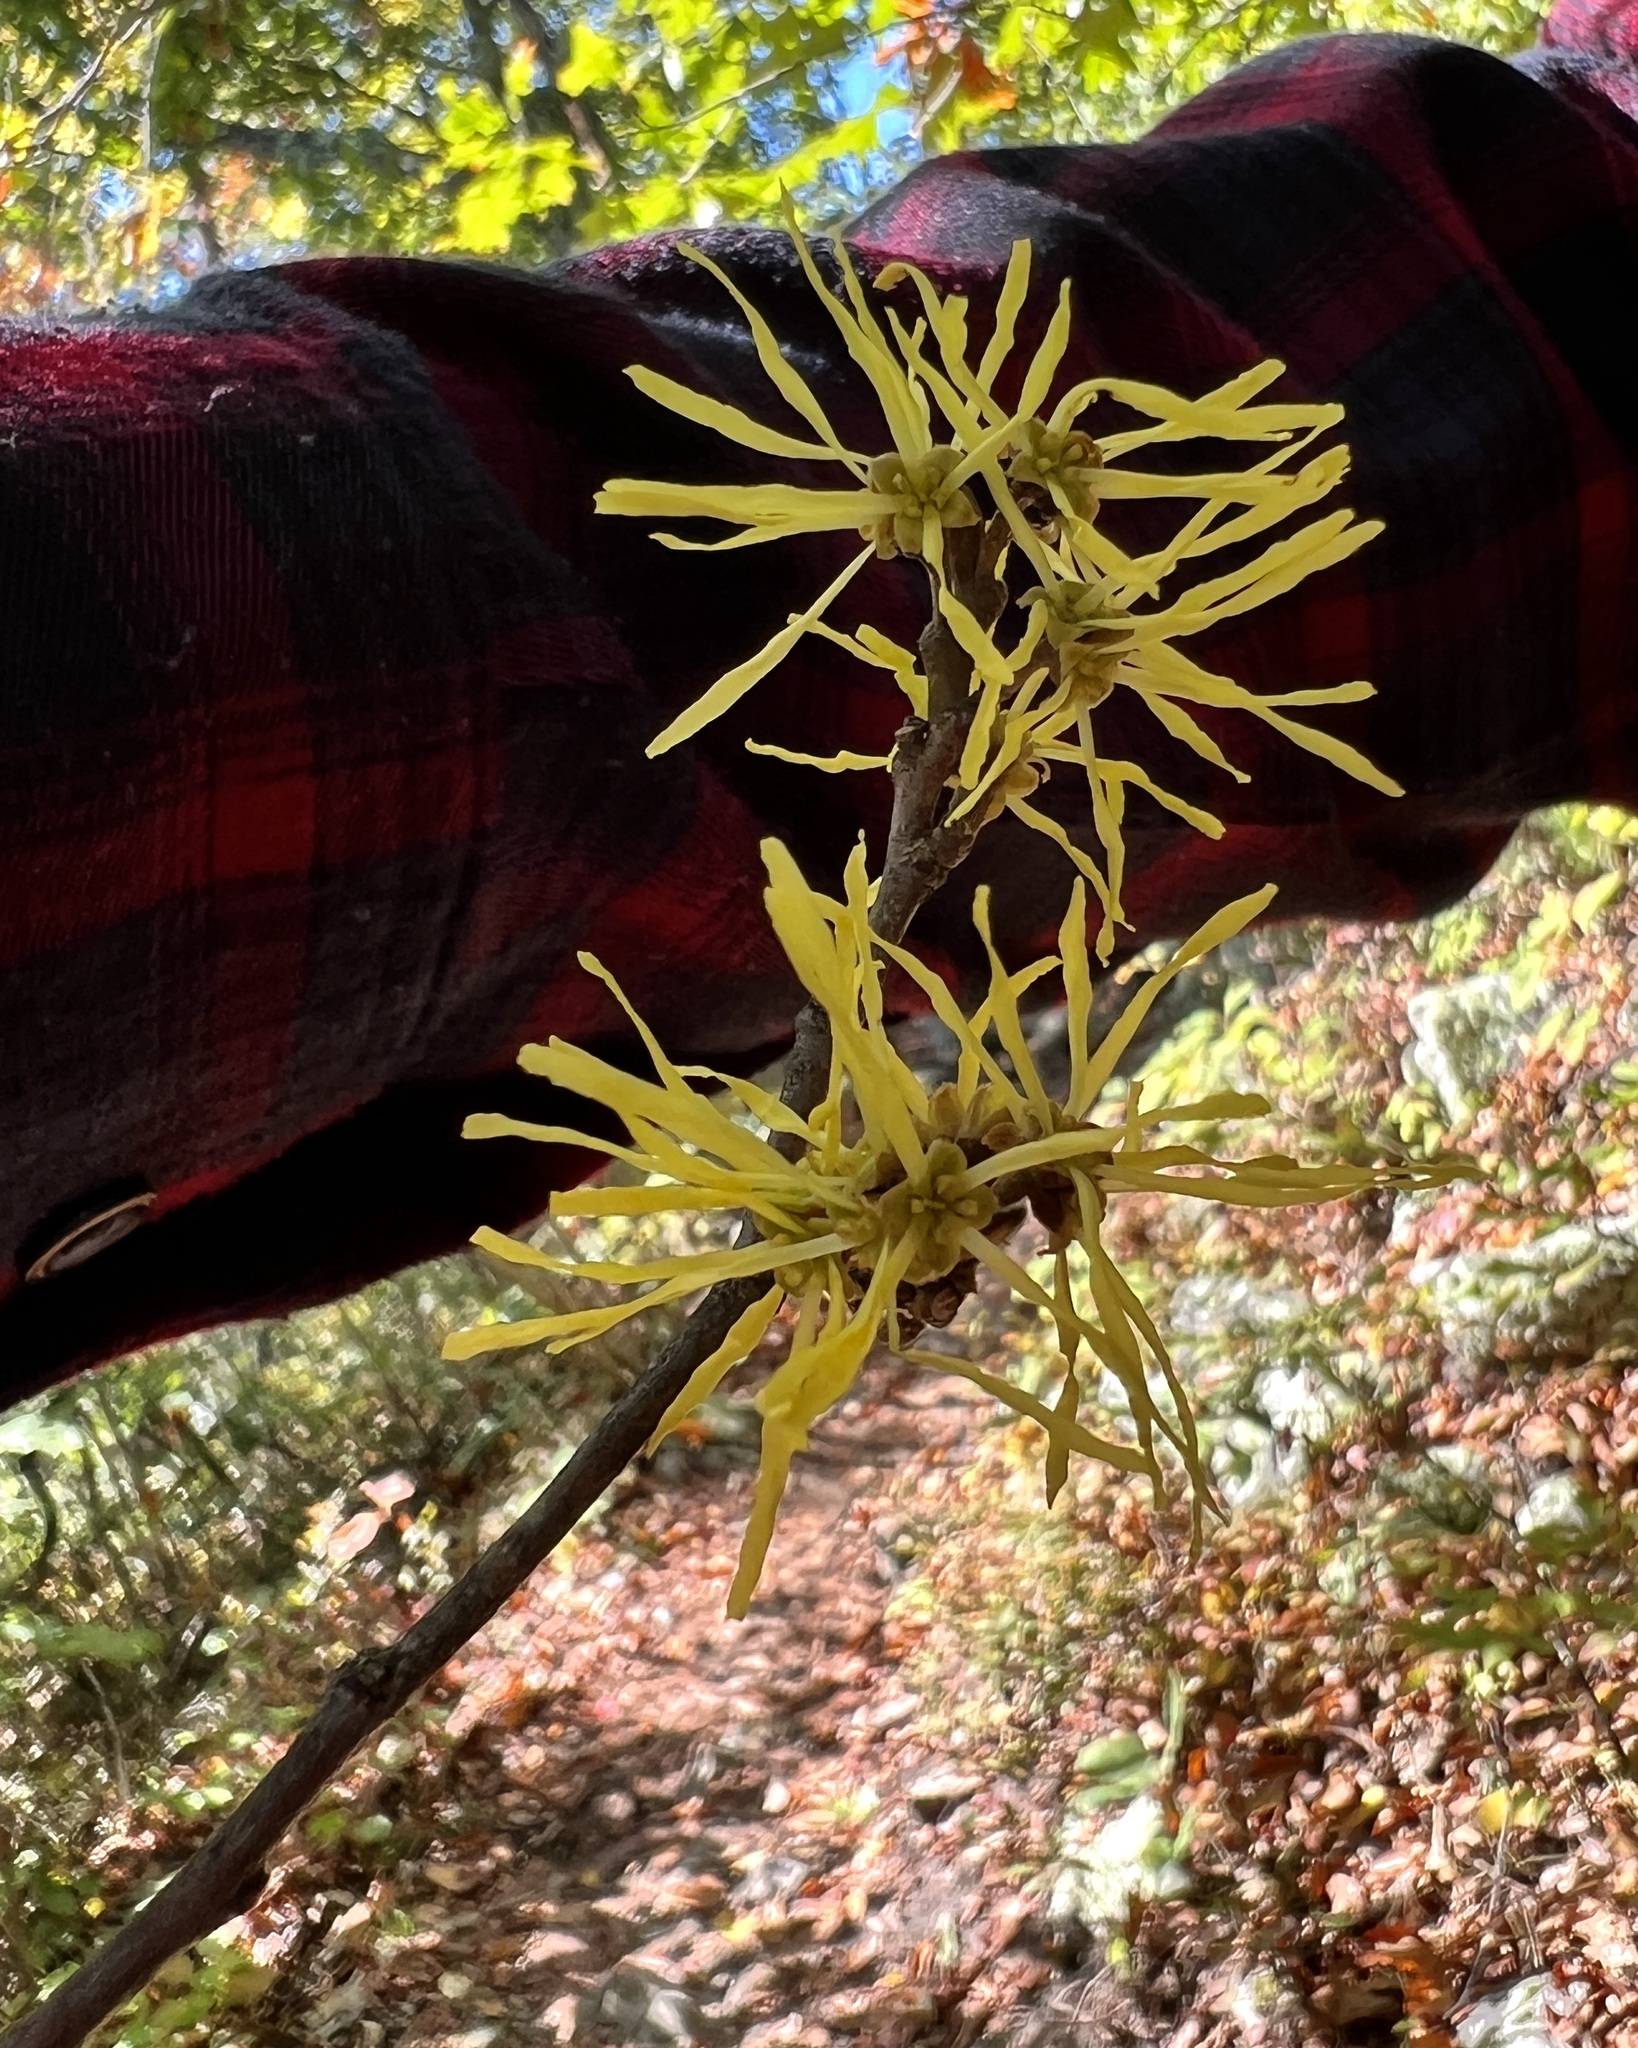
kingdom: Plantae
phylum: Tracheophyta
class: Magnoliopsida
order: Saxifragales
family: Hamamelidaceae
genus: Hamamelis
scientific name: Hamamelis virginiana
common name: Witch-hazel
